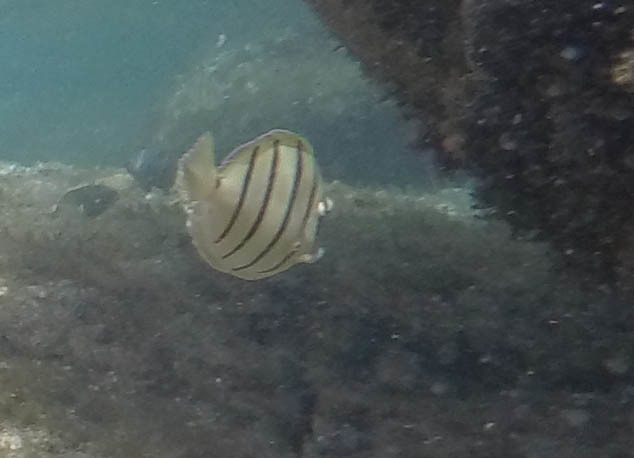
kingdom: Animalia
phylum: Chordata
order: Perciformes
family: Acanthuridae
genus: Acanthurus
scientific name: Acanthurus triostegus
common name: Convict surgeonfish
